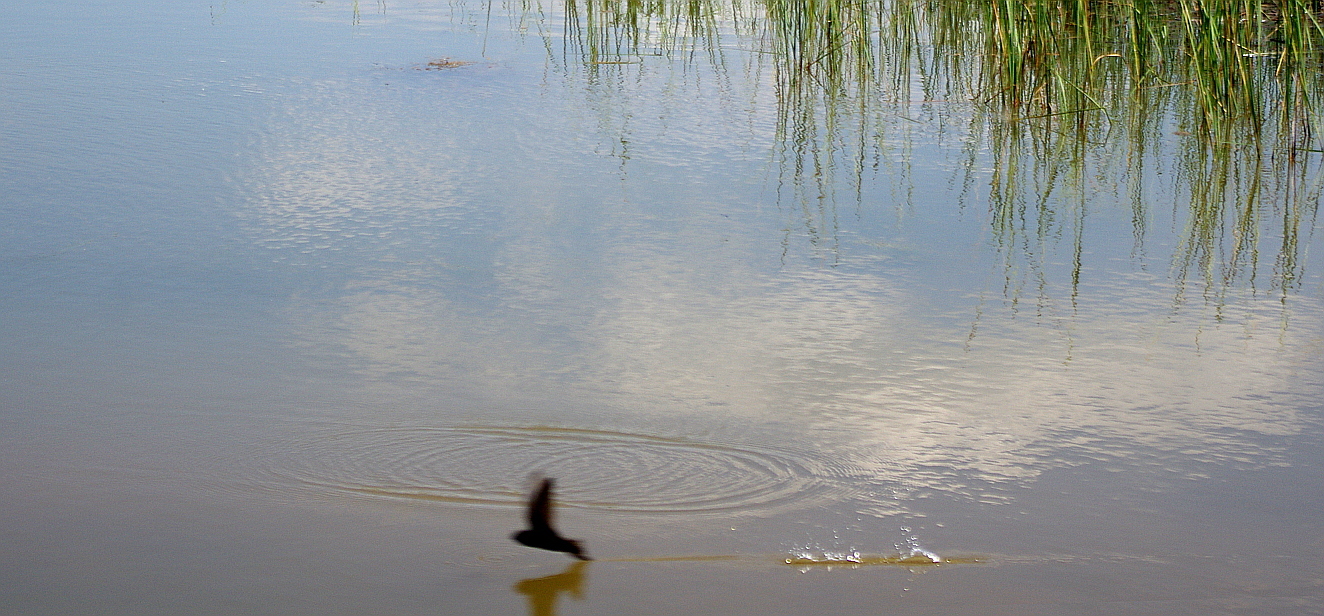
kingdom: Animalia
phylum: Chordata
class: Aves
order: Apodiformes
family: Apodidae
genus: Apus
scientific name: Apus apus
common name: Common swift
